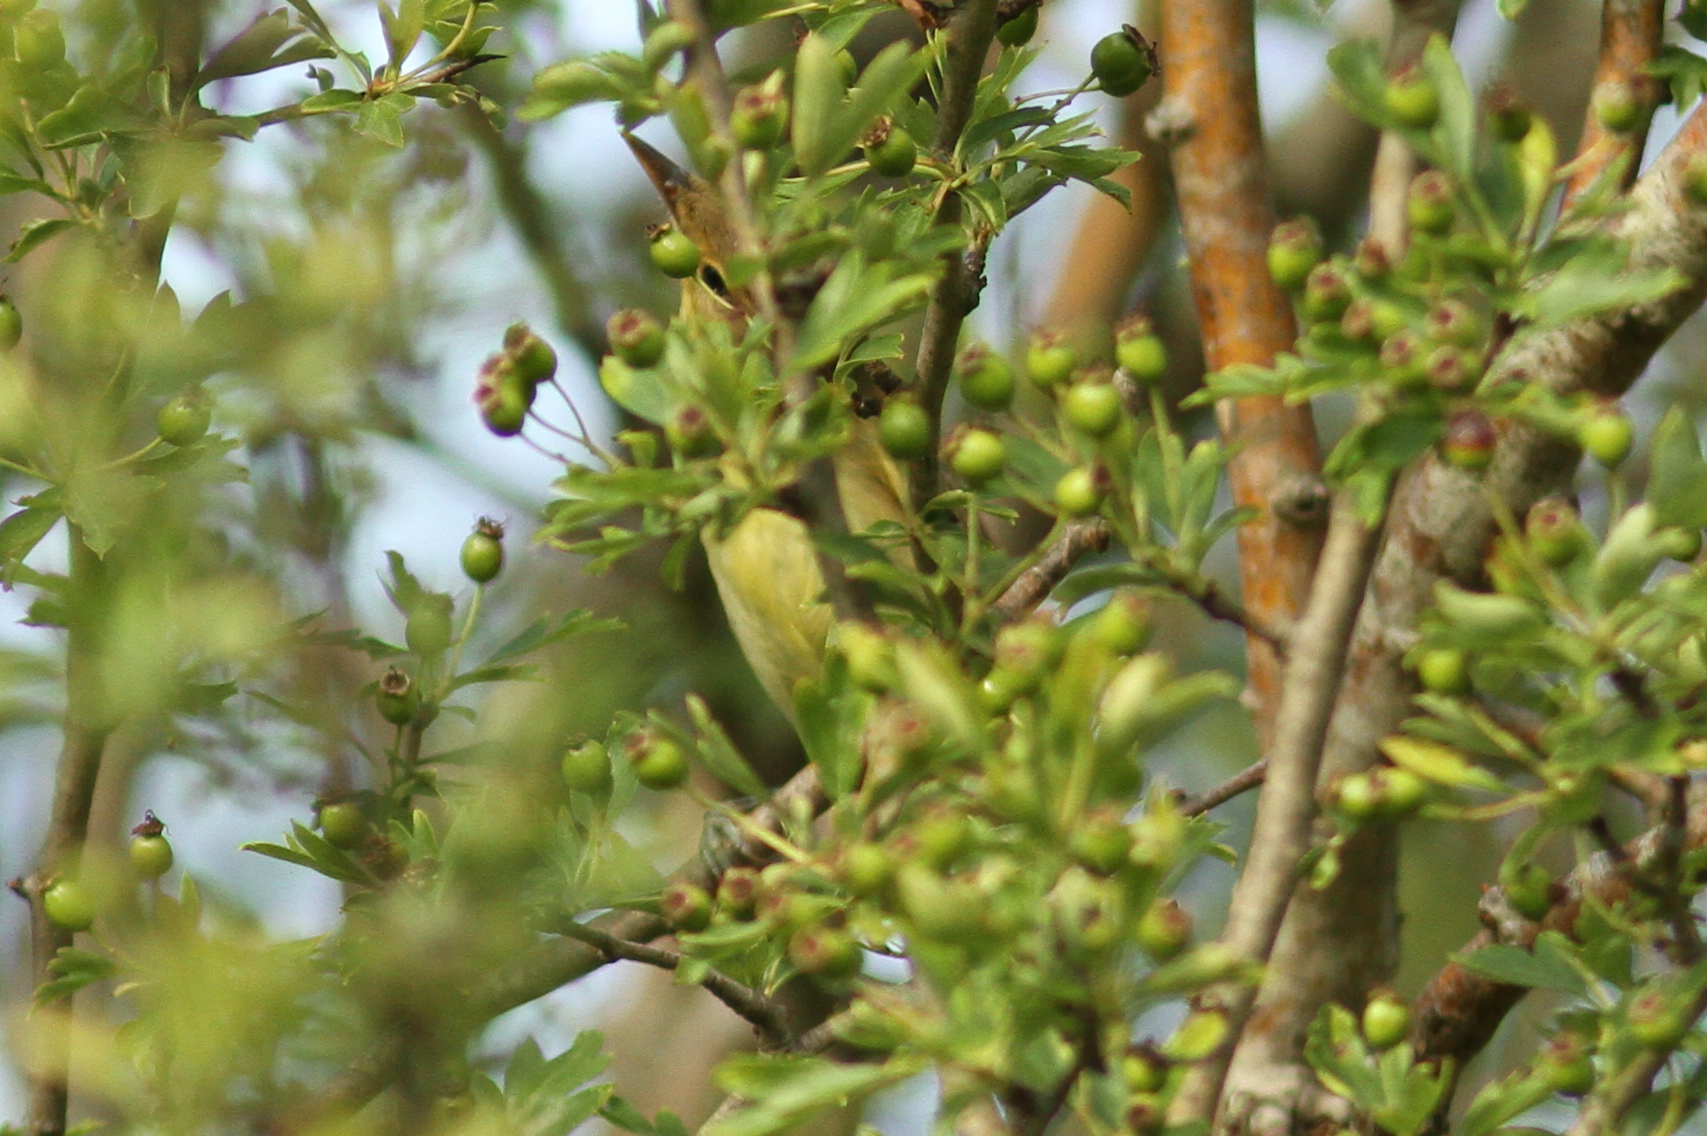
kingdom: Animalia
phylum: Chordata
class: Aves
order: Passeriformes
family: Acrocephalidae
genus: Hippolais
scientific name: Hippolais polyglotta
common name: Melodious warbler
